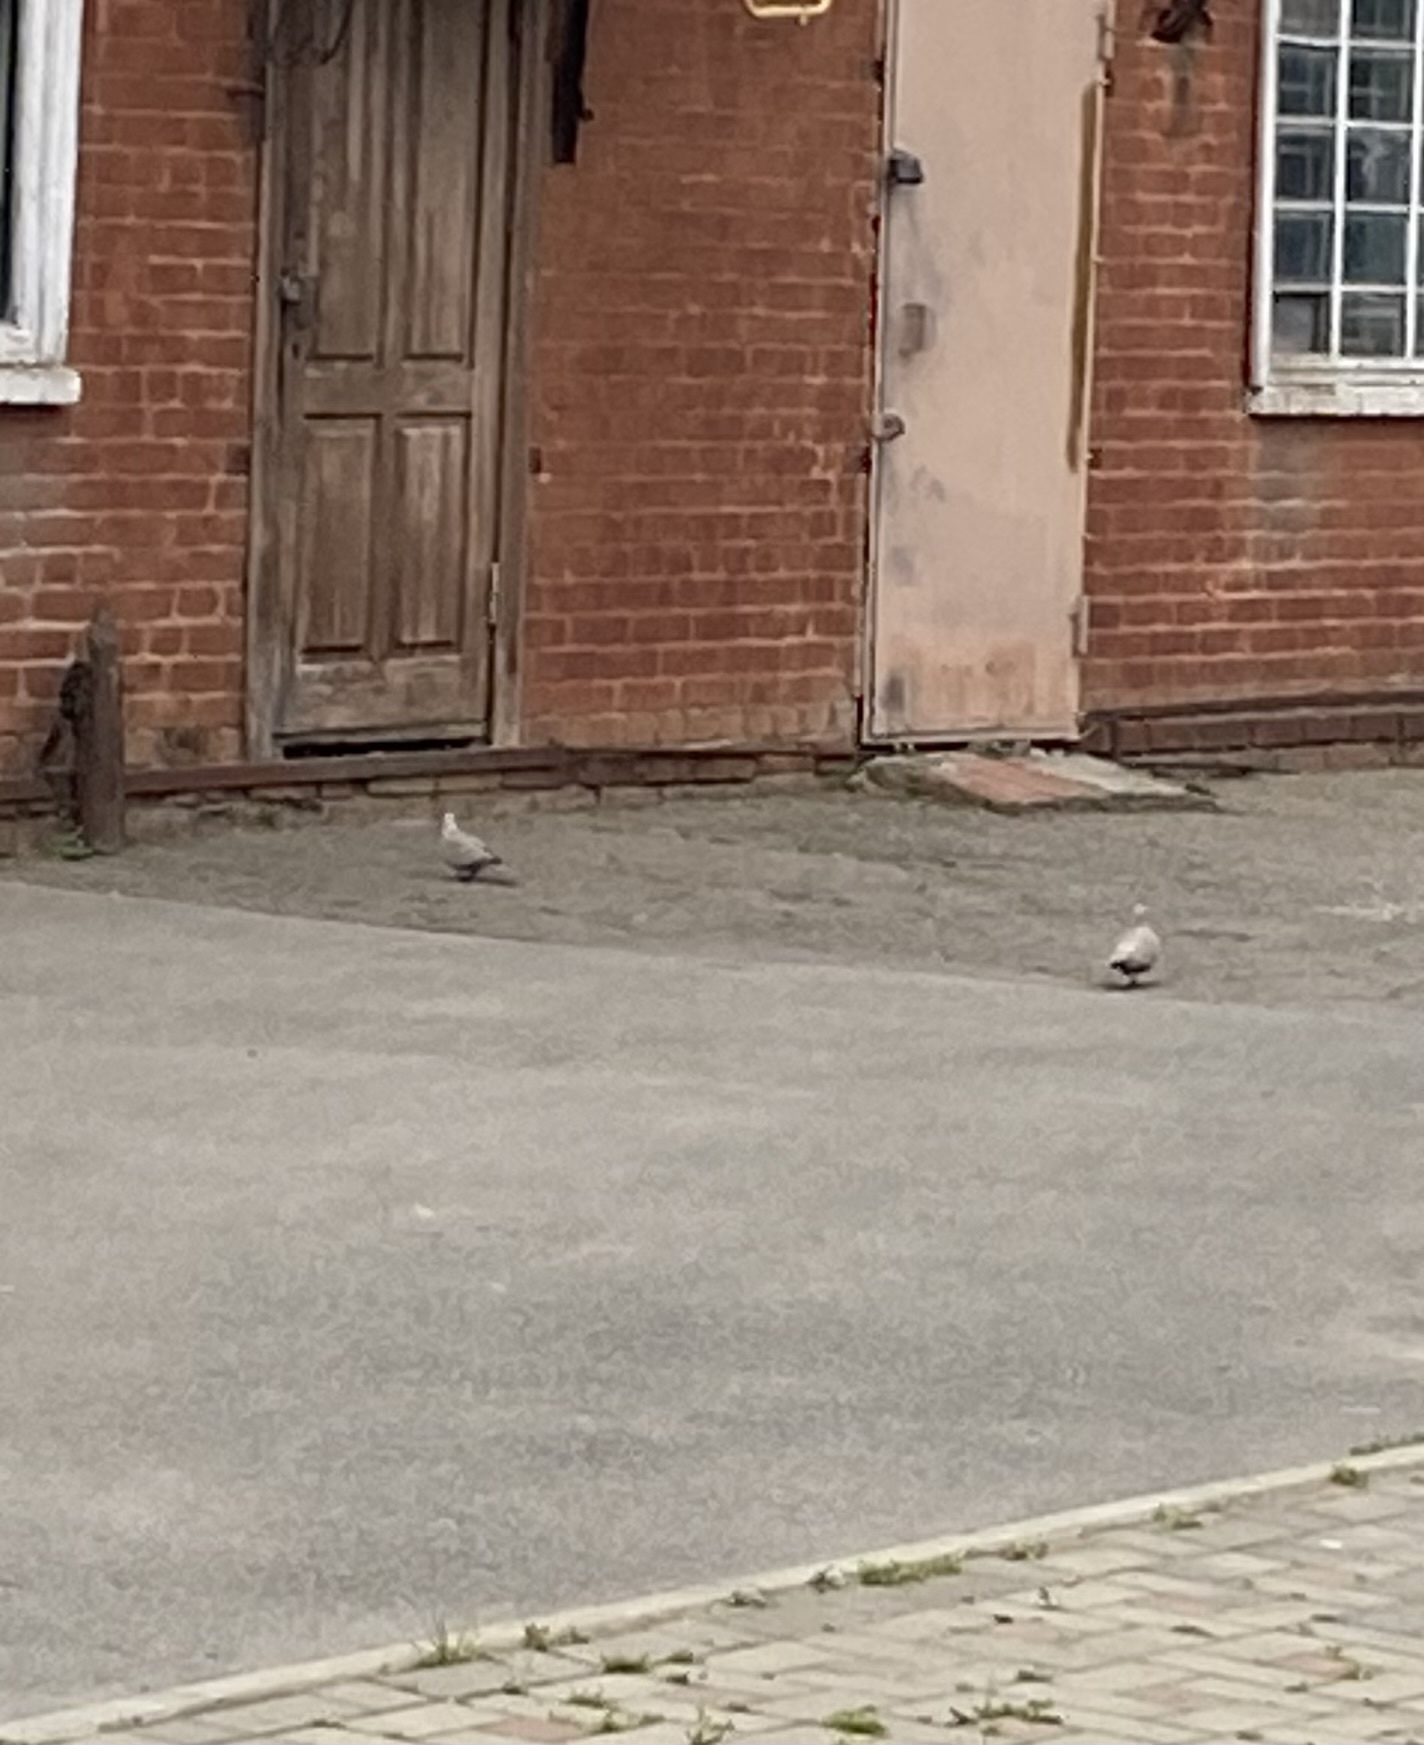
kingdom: Animalia
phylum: Chordata
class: Aves
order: Columbiformes
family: Columbidae
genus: Streptopelia
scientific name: Streptopelia decaocto
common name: Eurasian collared dove
